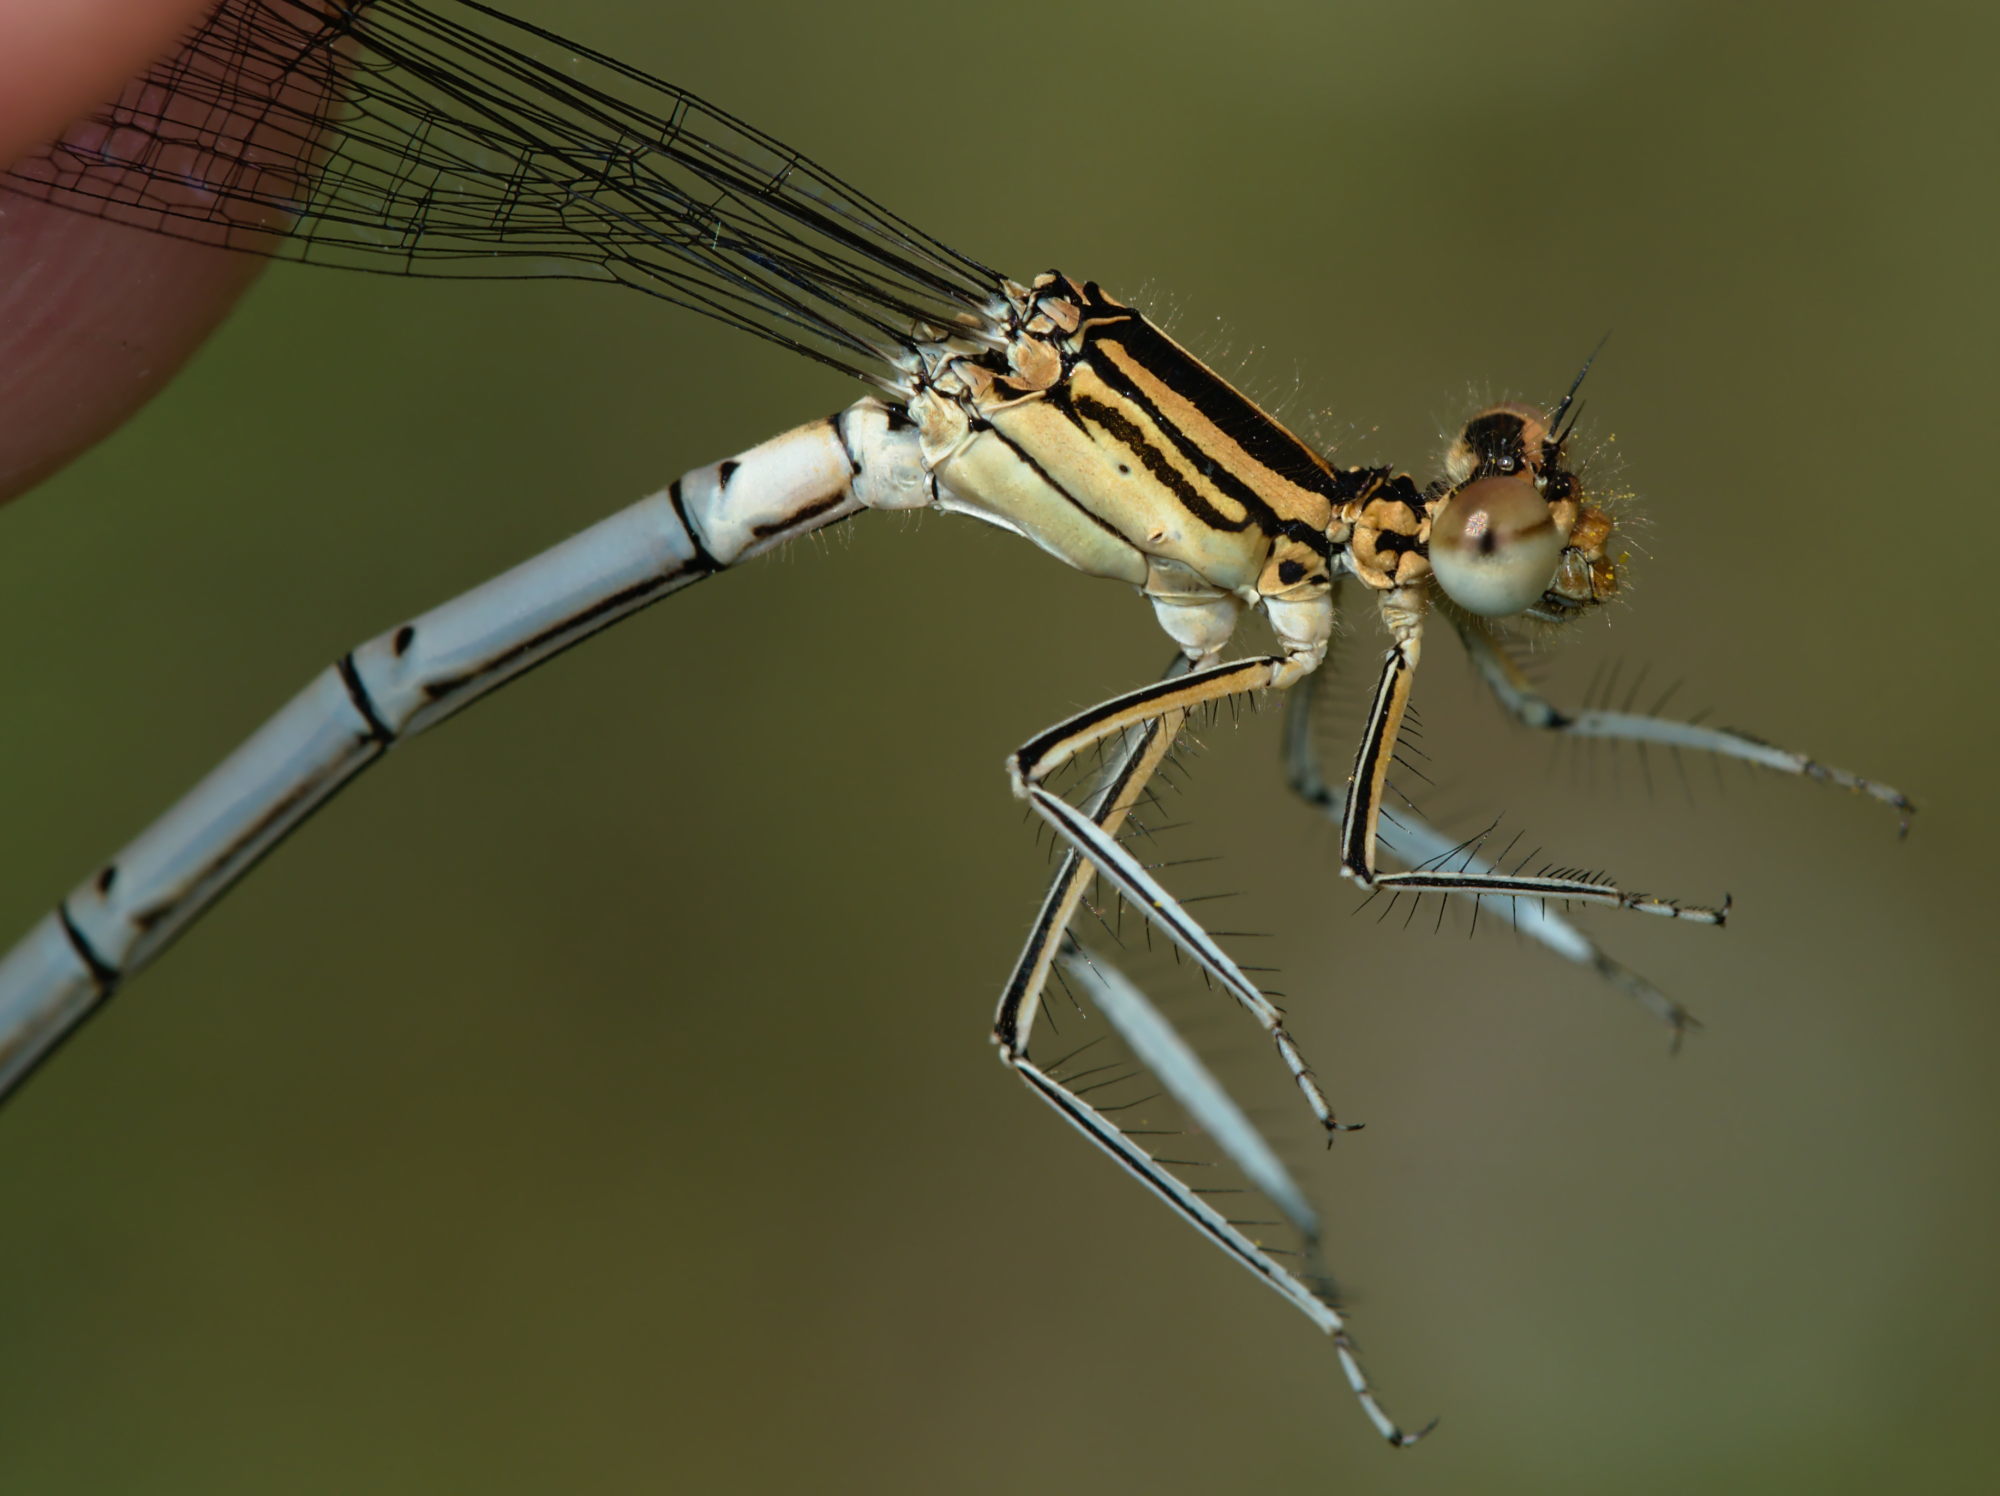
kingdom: Animalia
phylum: Arthropoda
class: Insecta
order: Odonata
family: Platycnemididae
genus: Platycnemis
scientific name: Platycnemis pennipes
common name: White-legged damselfly
